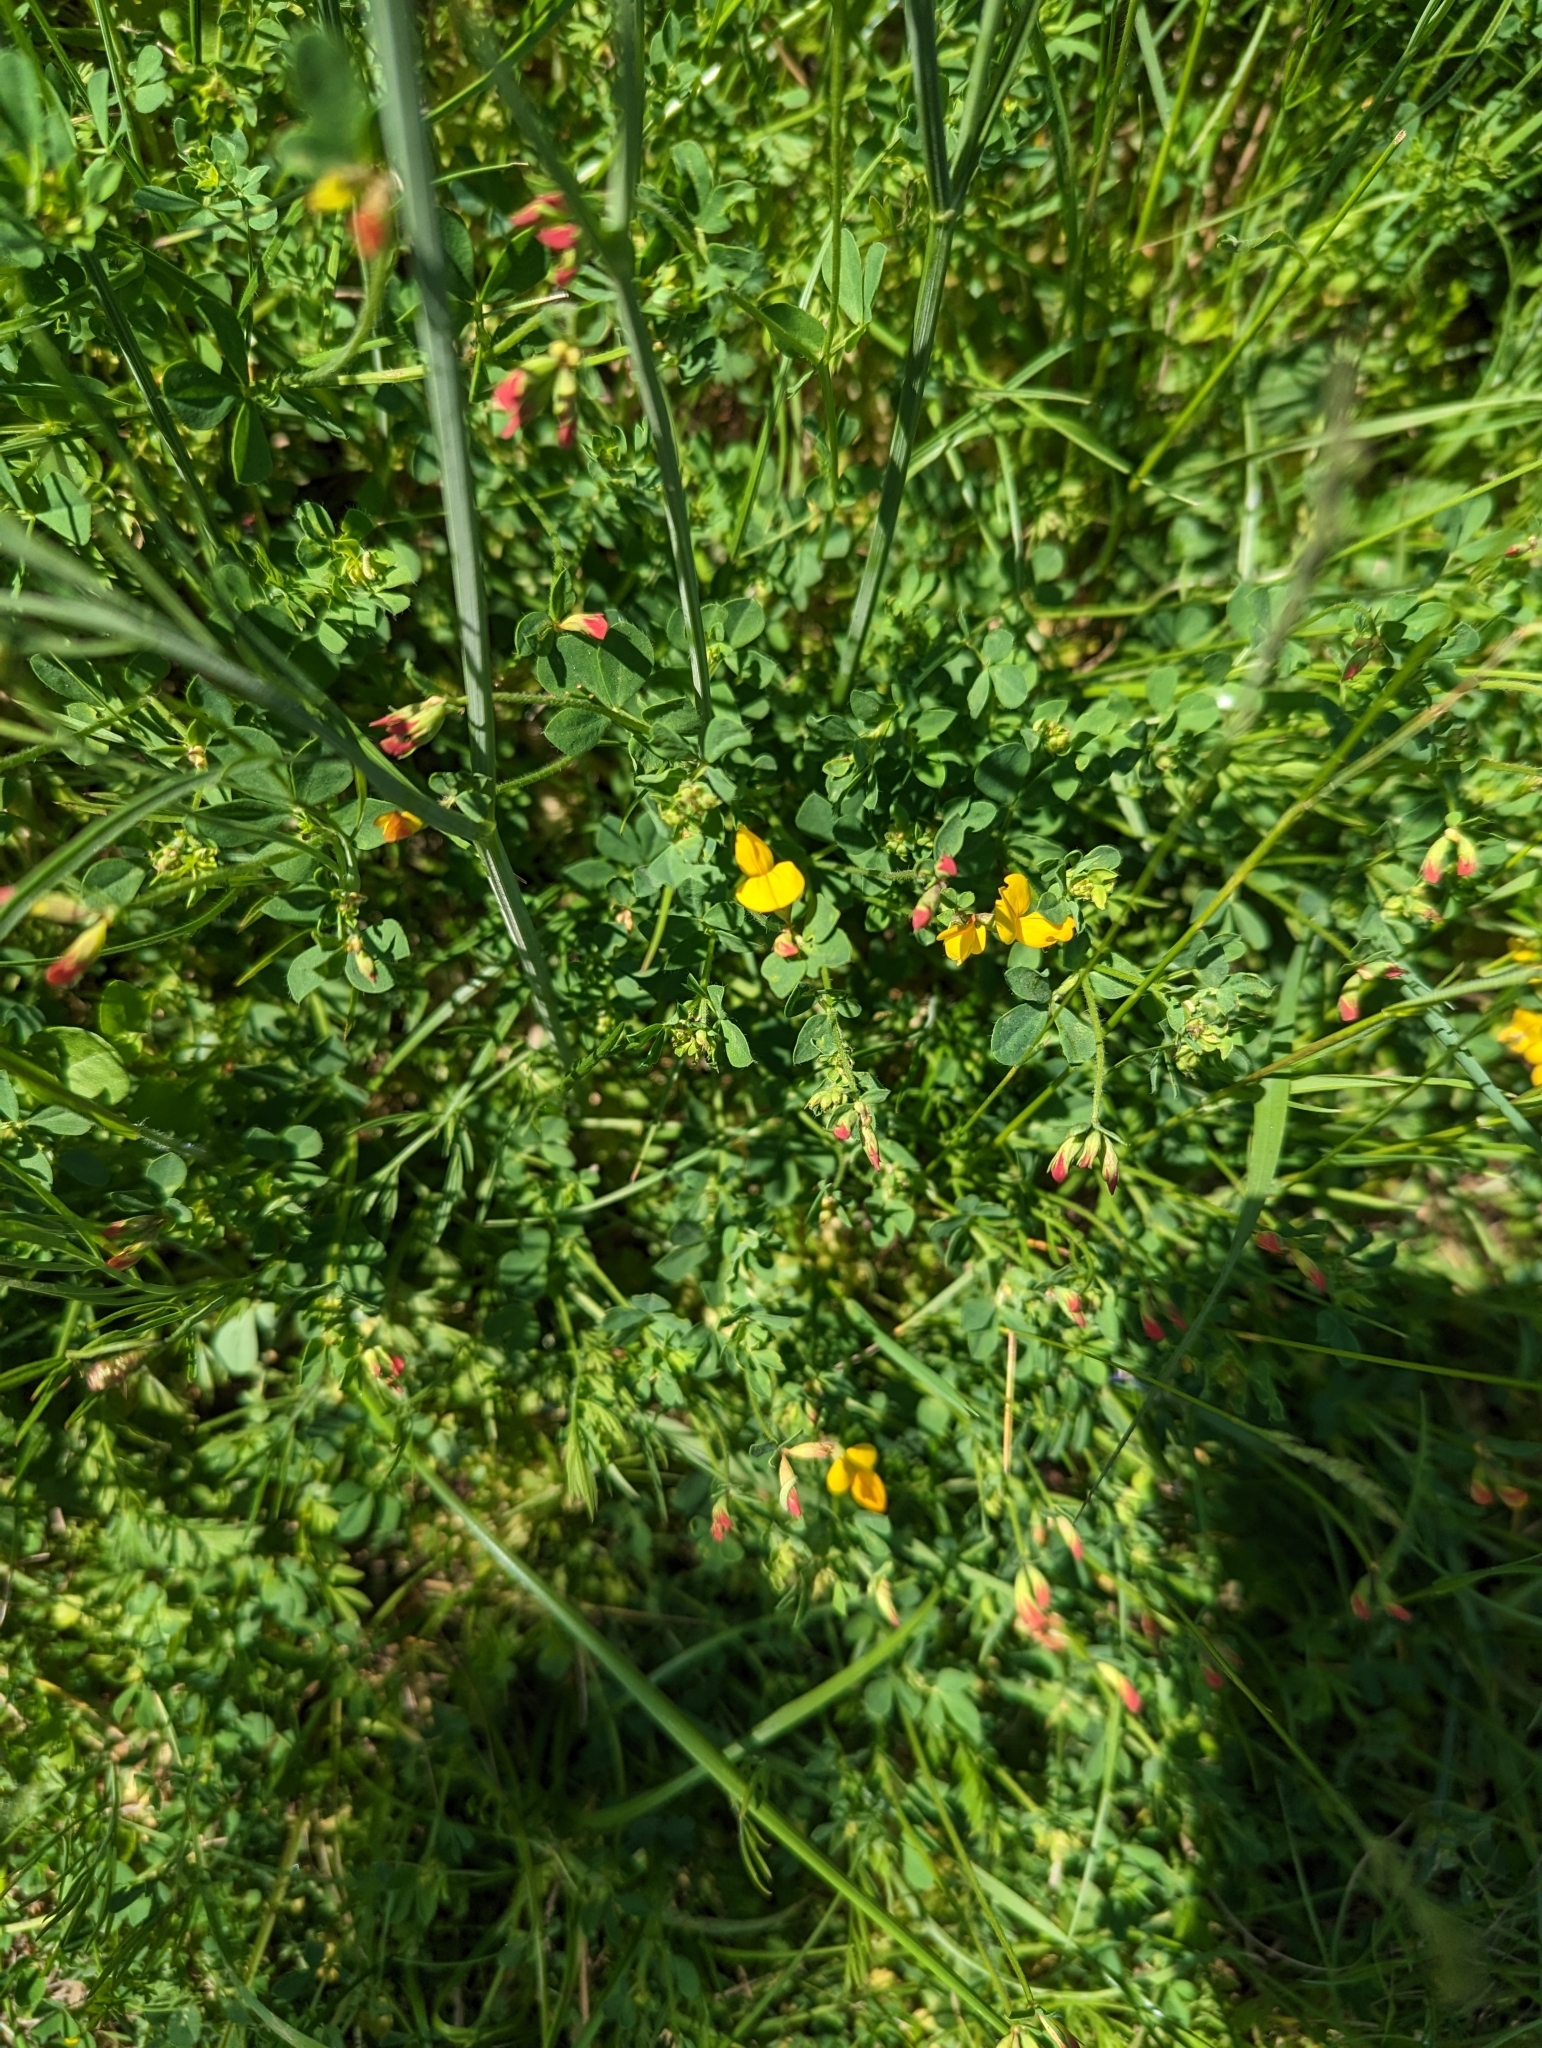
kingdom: Plantae
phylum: Tracheophyta
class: Magnoliopsida
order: Fabales
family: Fabaceae
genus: Lotus
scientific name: Lotus corniculatus
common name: Common bird's-foot-trefoil
